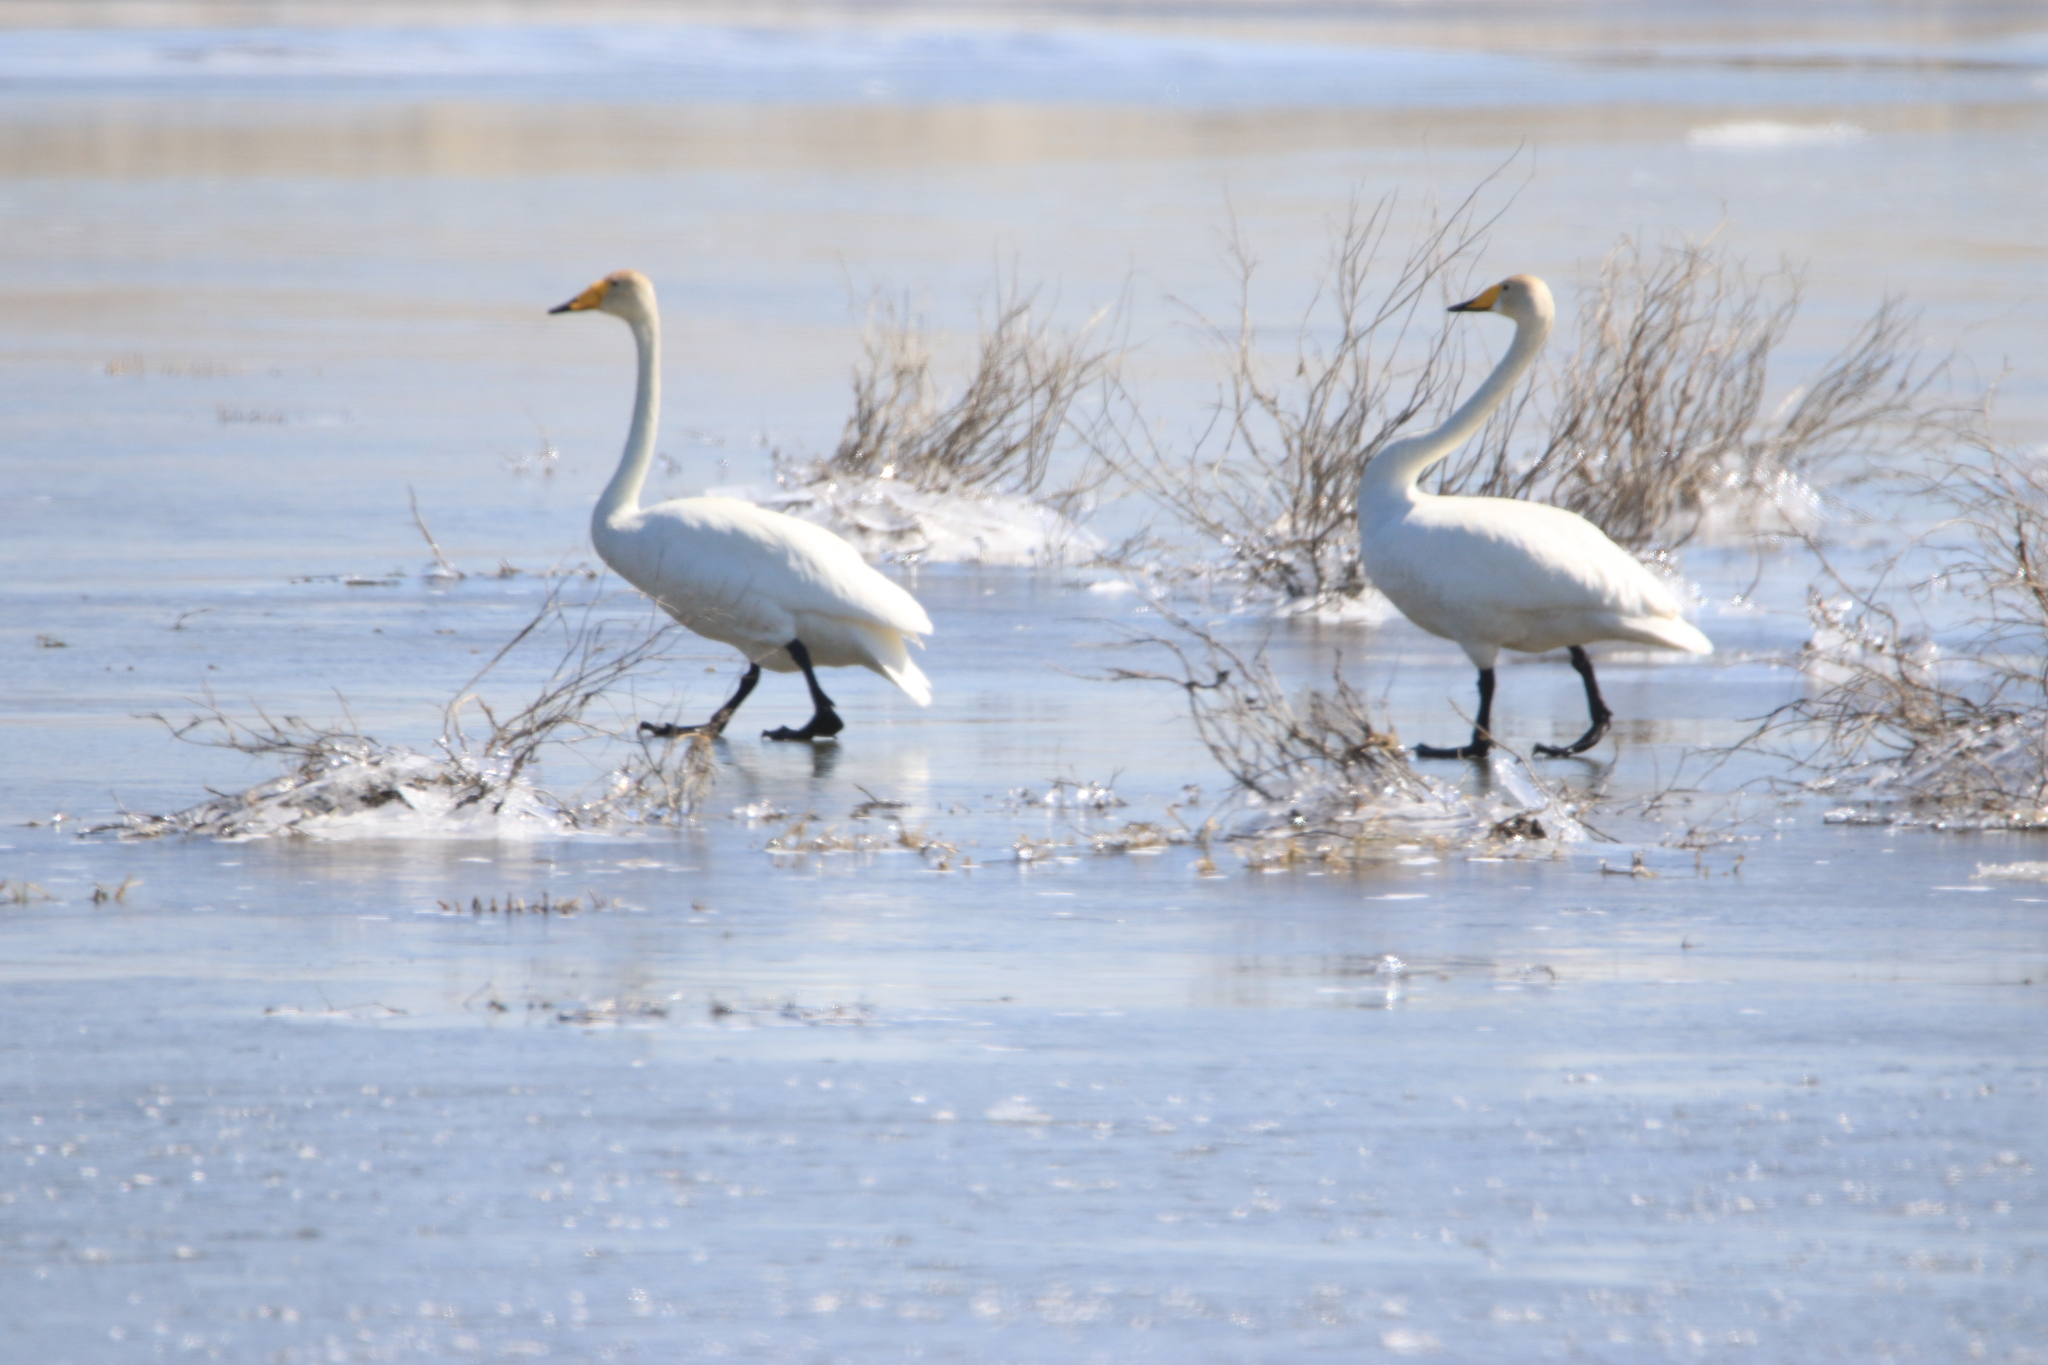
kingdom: Animalia
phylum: Chordata
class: Aves
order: Anseriformes
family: Anatidae
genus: Cygnus
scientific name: Cygnus cygnus
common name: Whooper swan
